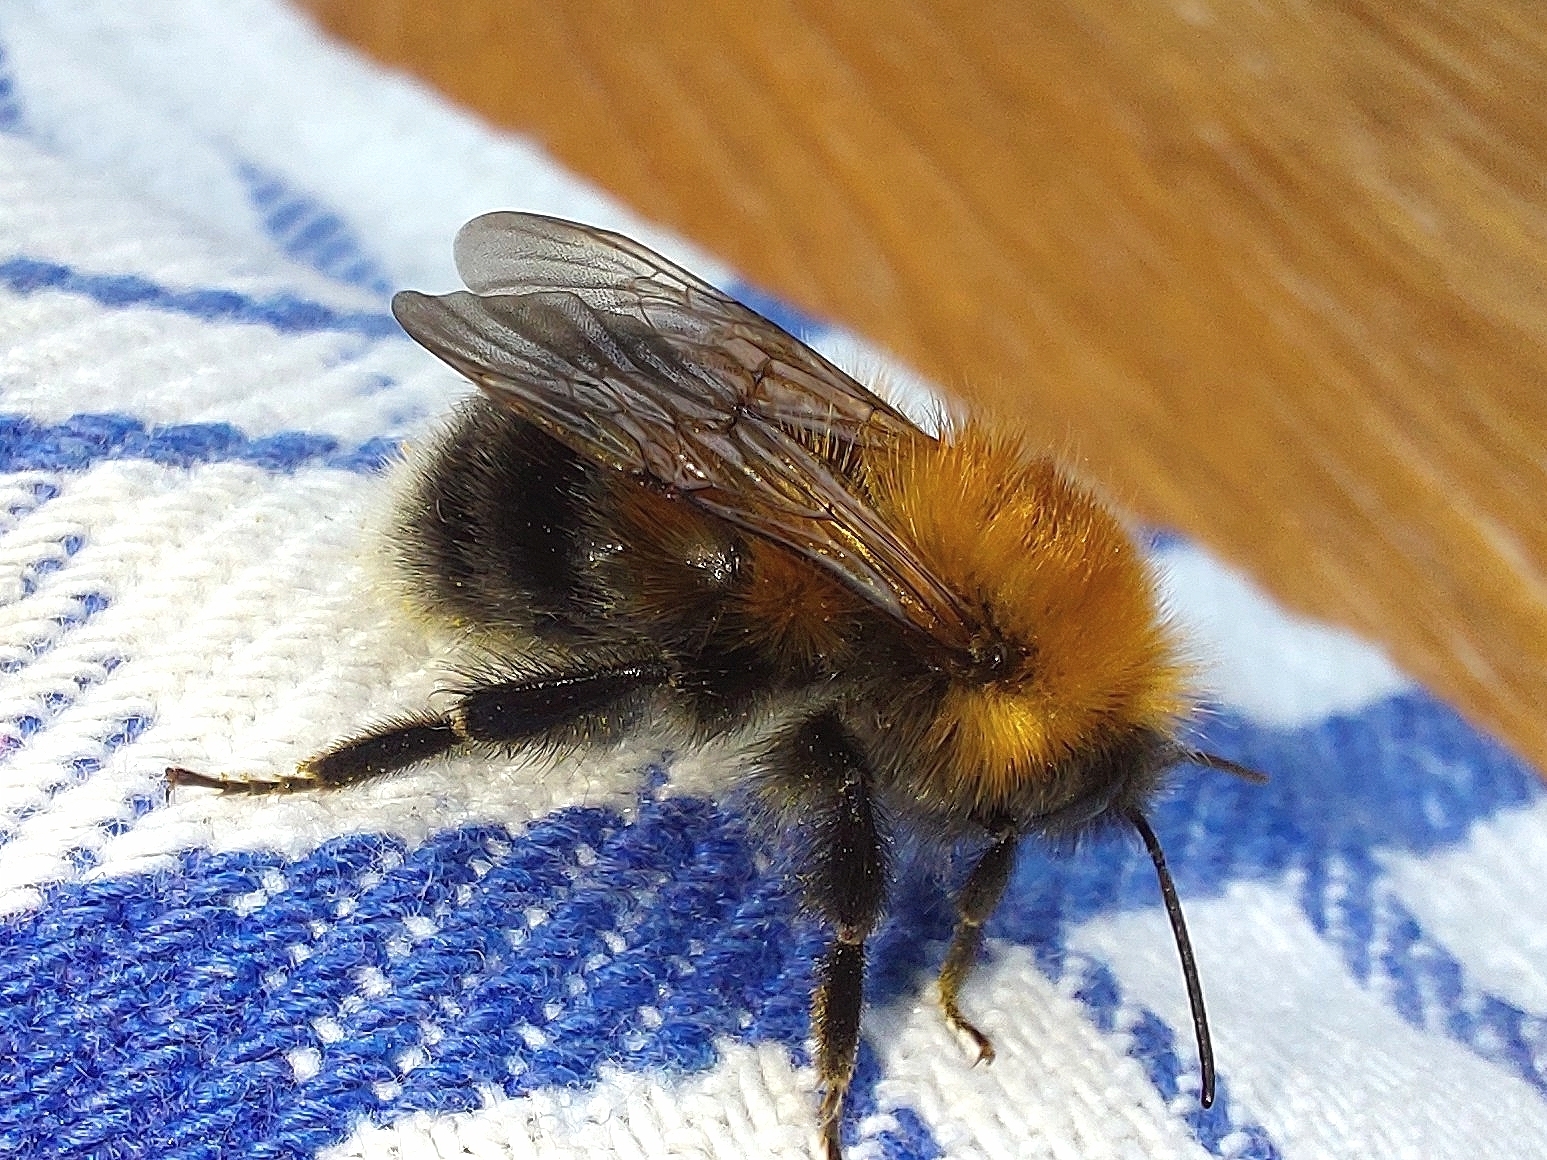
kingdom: Animalia
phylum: Arthropoda
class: Insecta
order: Hymenoptera
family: Apidae
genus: Bombus
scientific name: Bombus hypnorum
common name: New garden bumblebee
